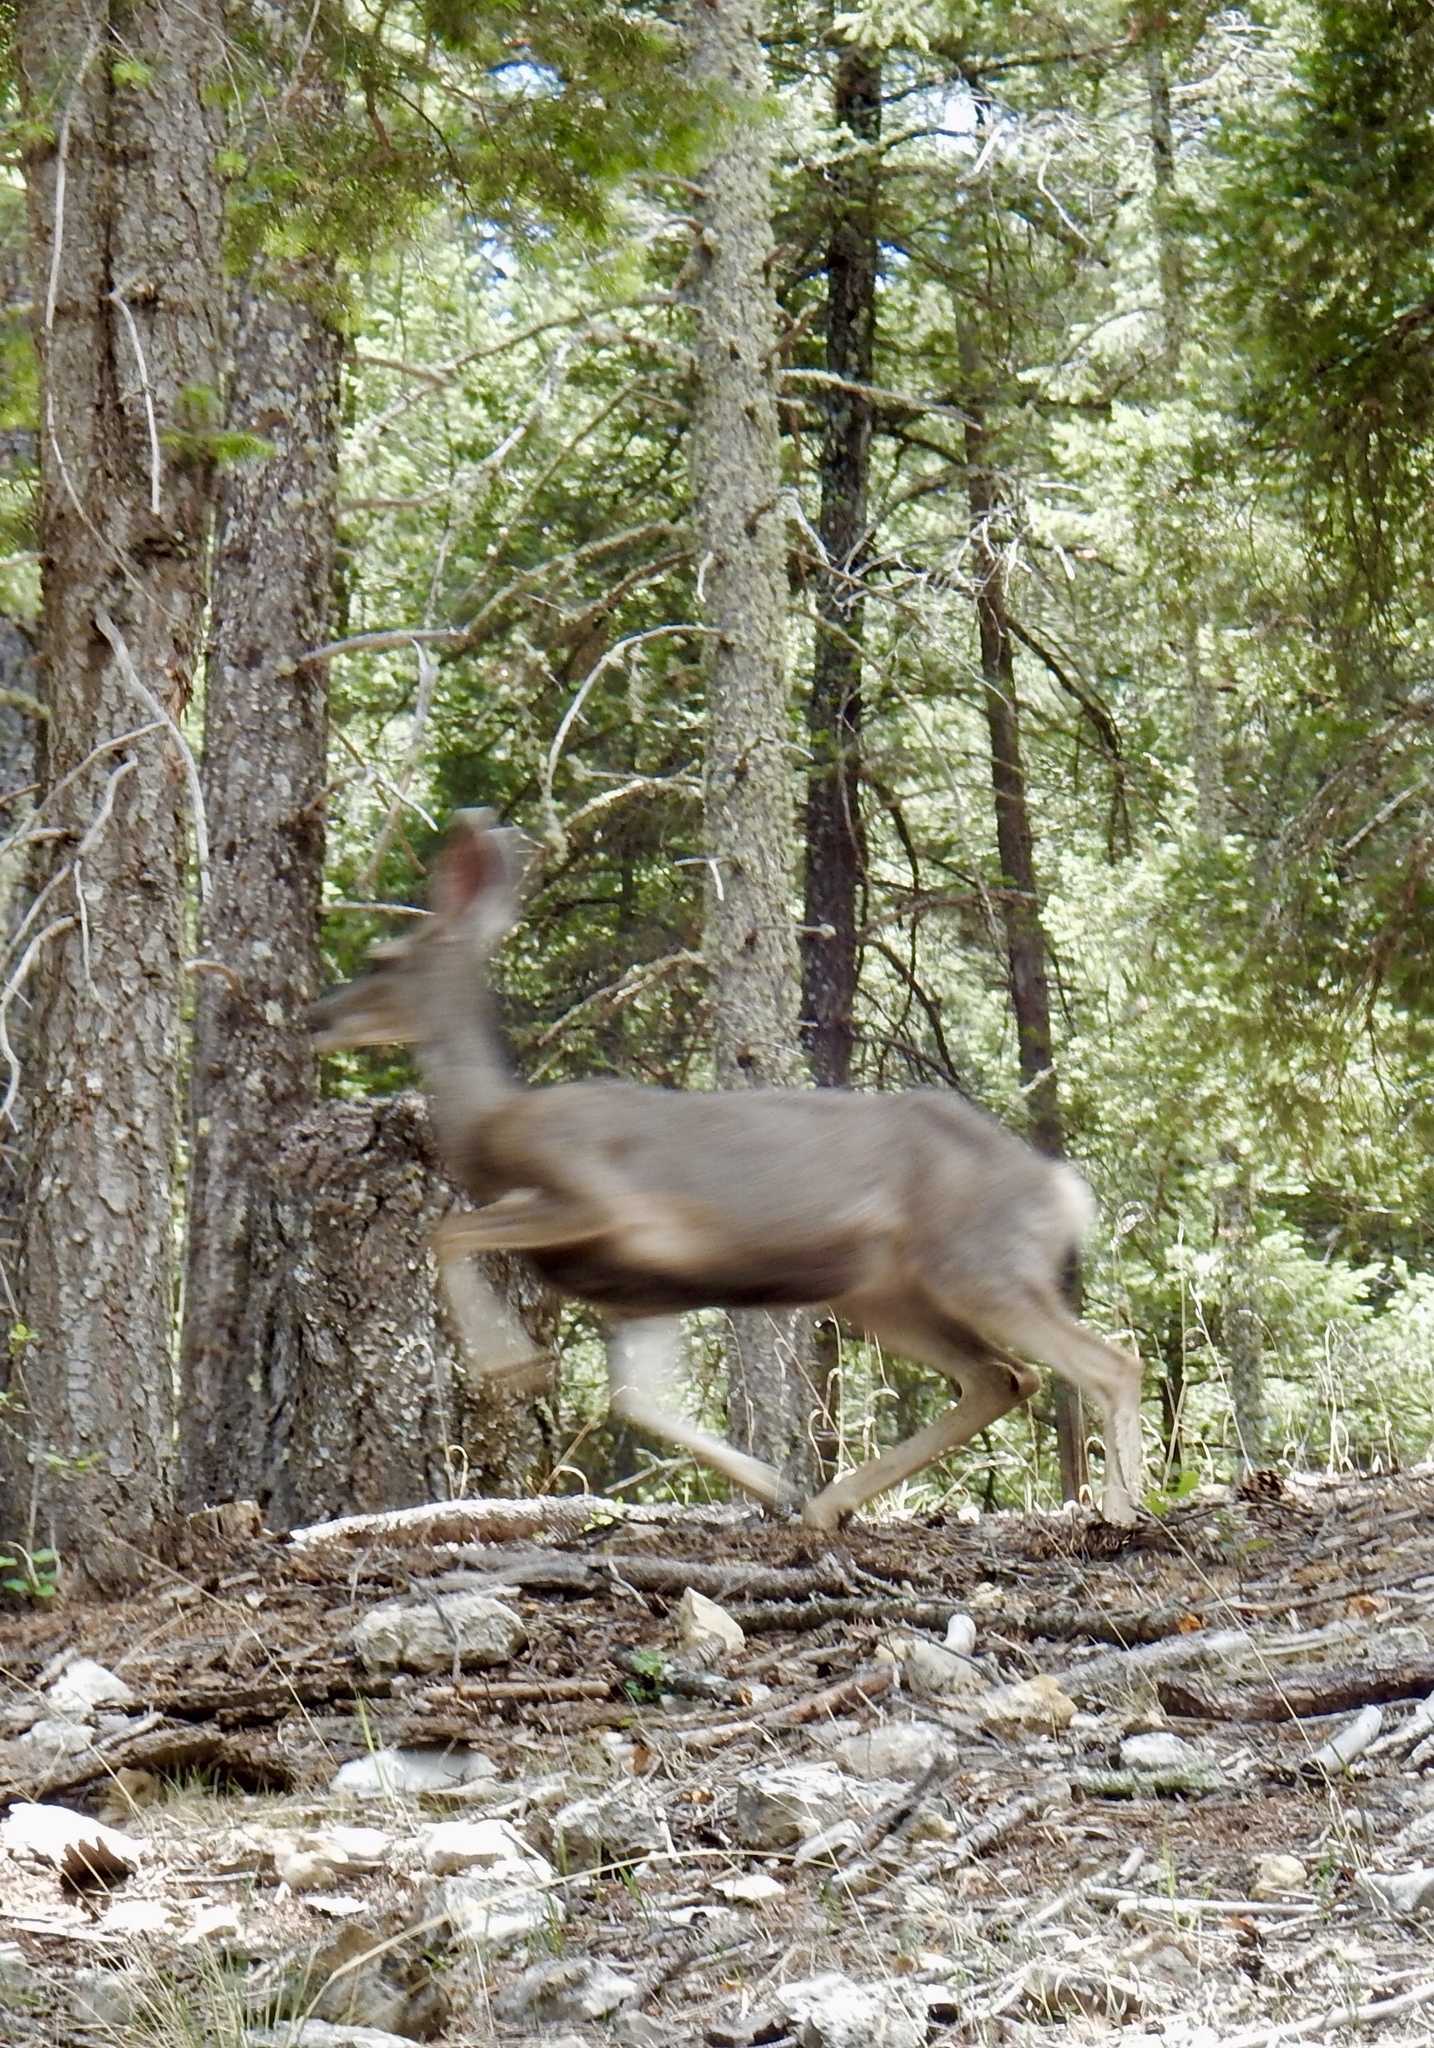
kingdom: Animalia
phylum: Chordata
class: Mammalia
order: Artiodactyla
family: Cervidae
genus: Odocoileus
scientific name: Odocoileus hemionus
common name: Mule deer
